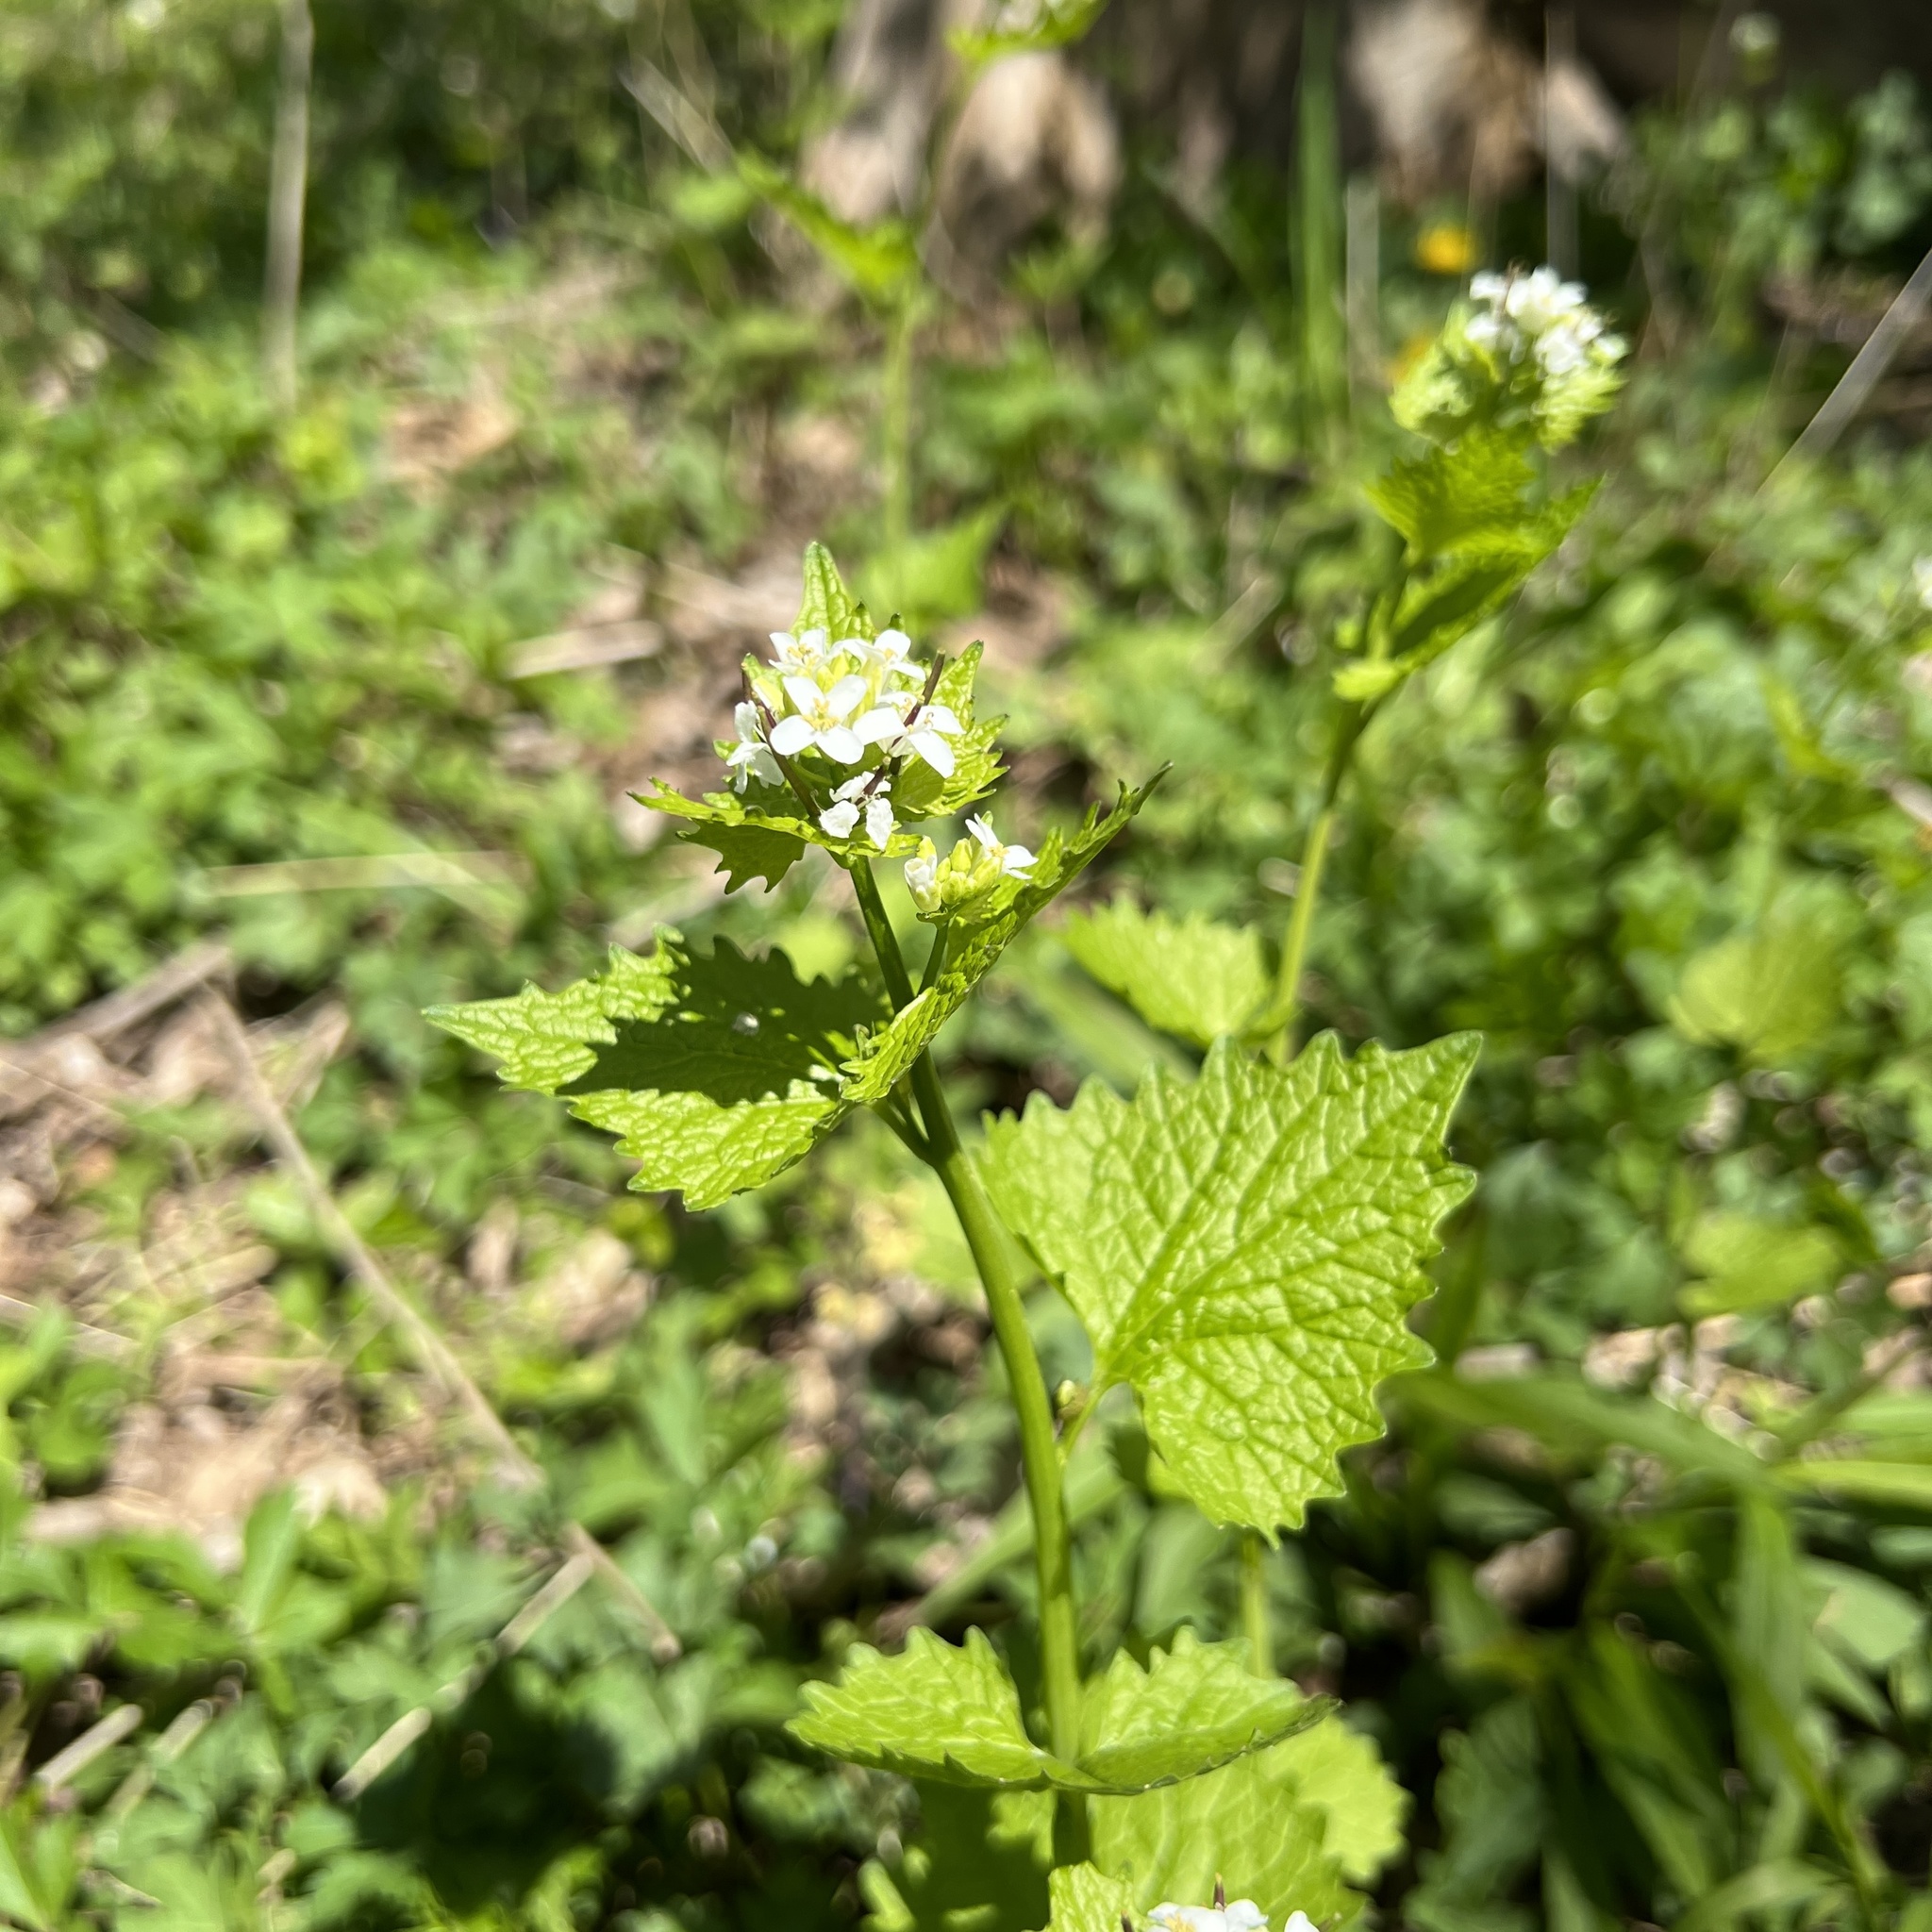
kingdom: Plantae
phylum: Tracheophyta
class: Magnoliopsida
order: Brassicales
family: Brassicaceae
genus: Alliaria
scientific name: Alliaria petiolata
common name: Garlic mustard
